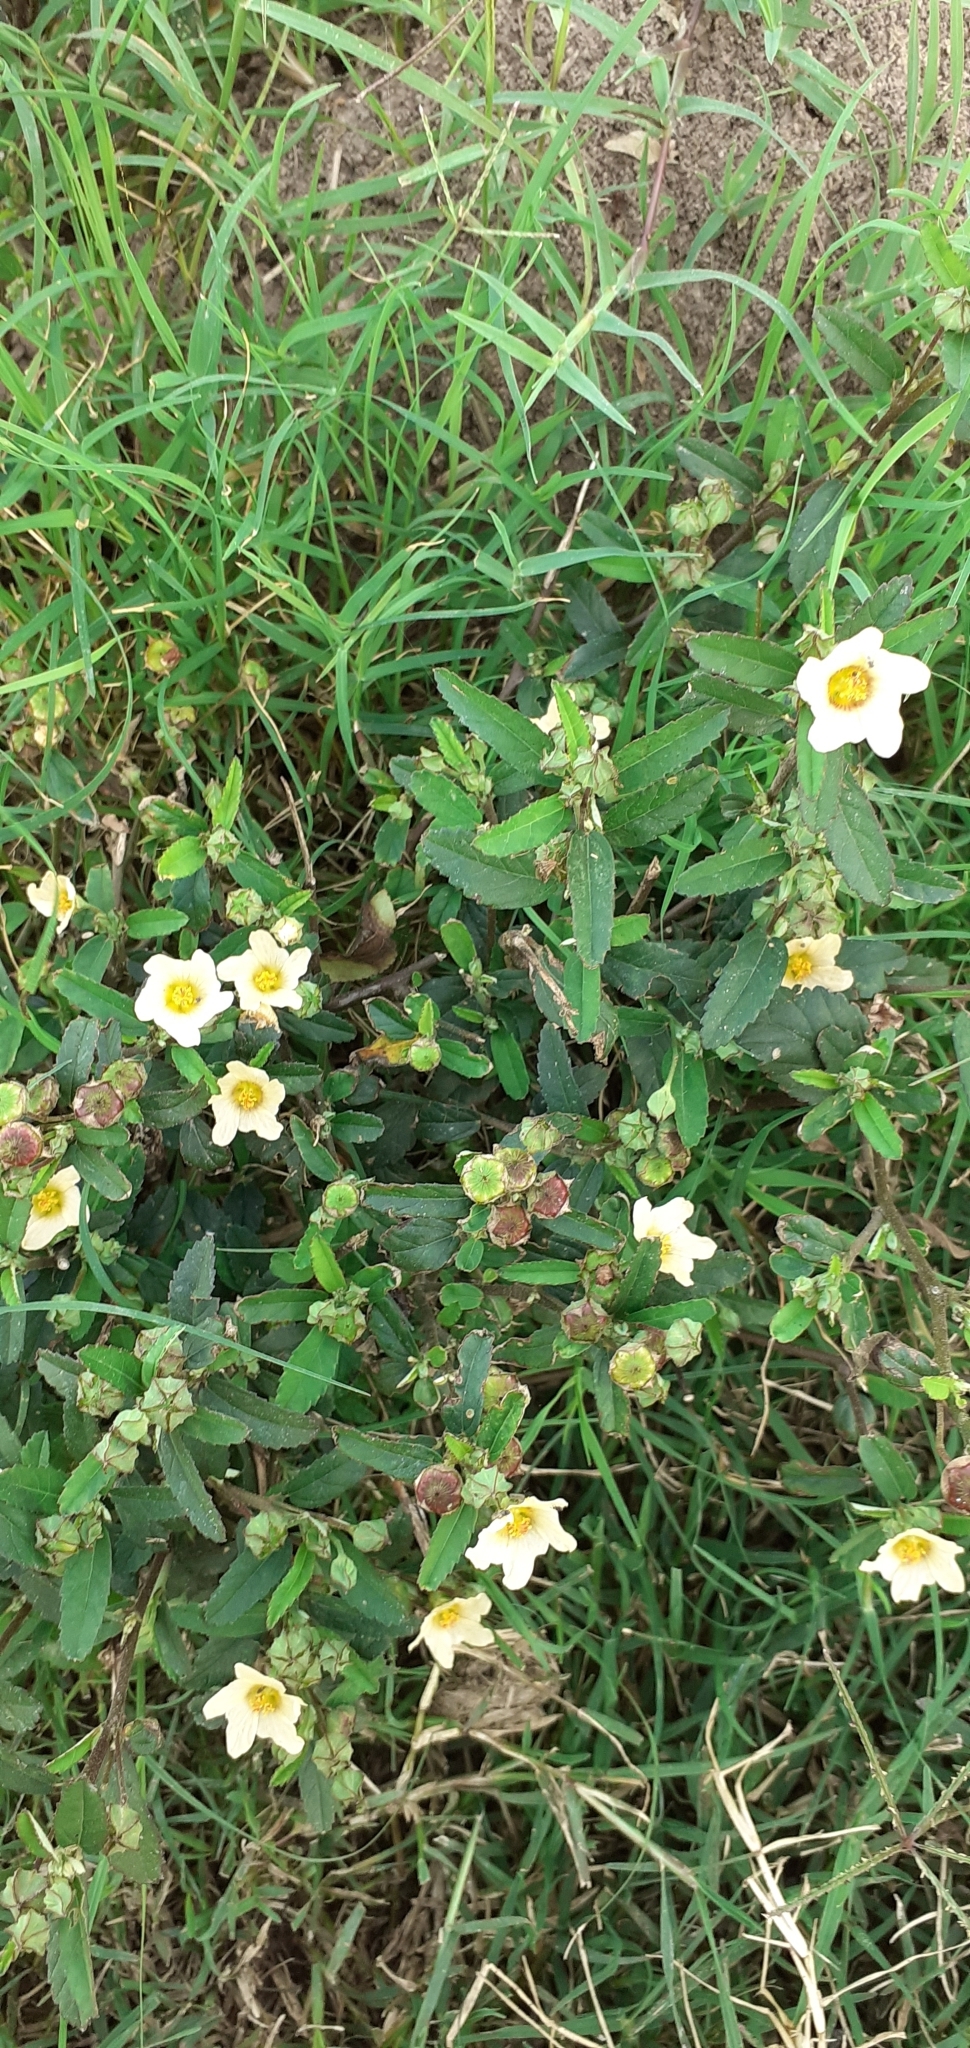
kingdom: Plantae
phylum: Tracheophyta
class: Magnoliopsida
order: Malvales
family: Malvaceae
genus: Sida
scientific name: Sida rhombifolia
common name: Queensland-hemp
